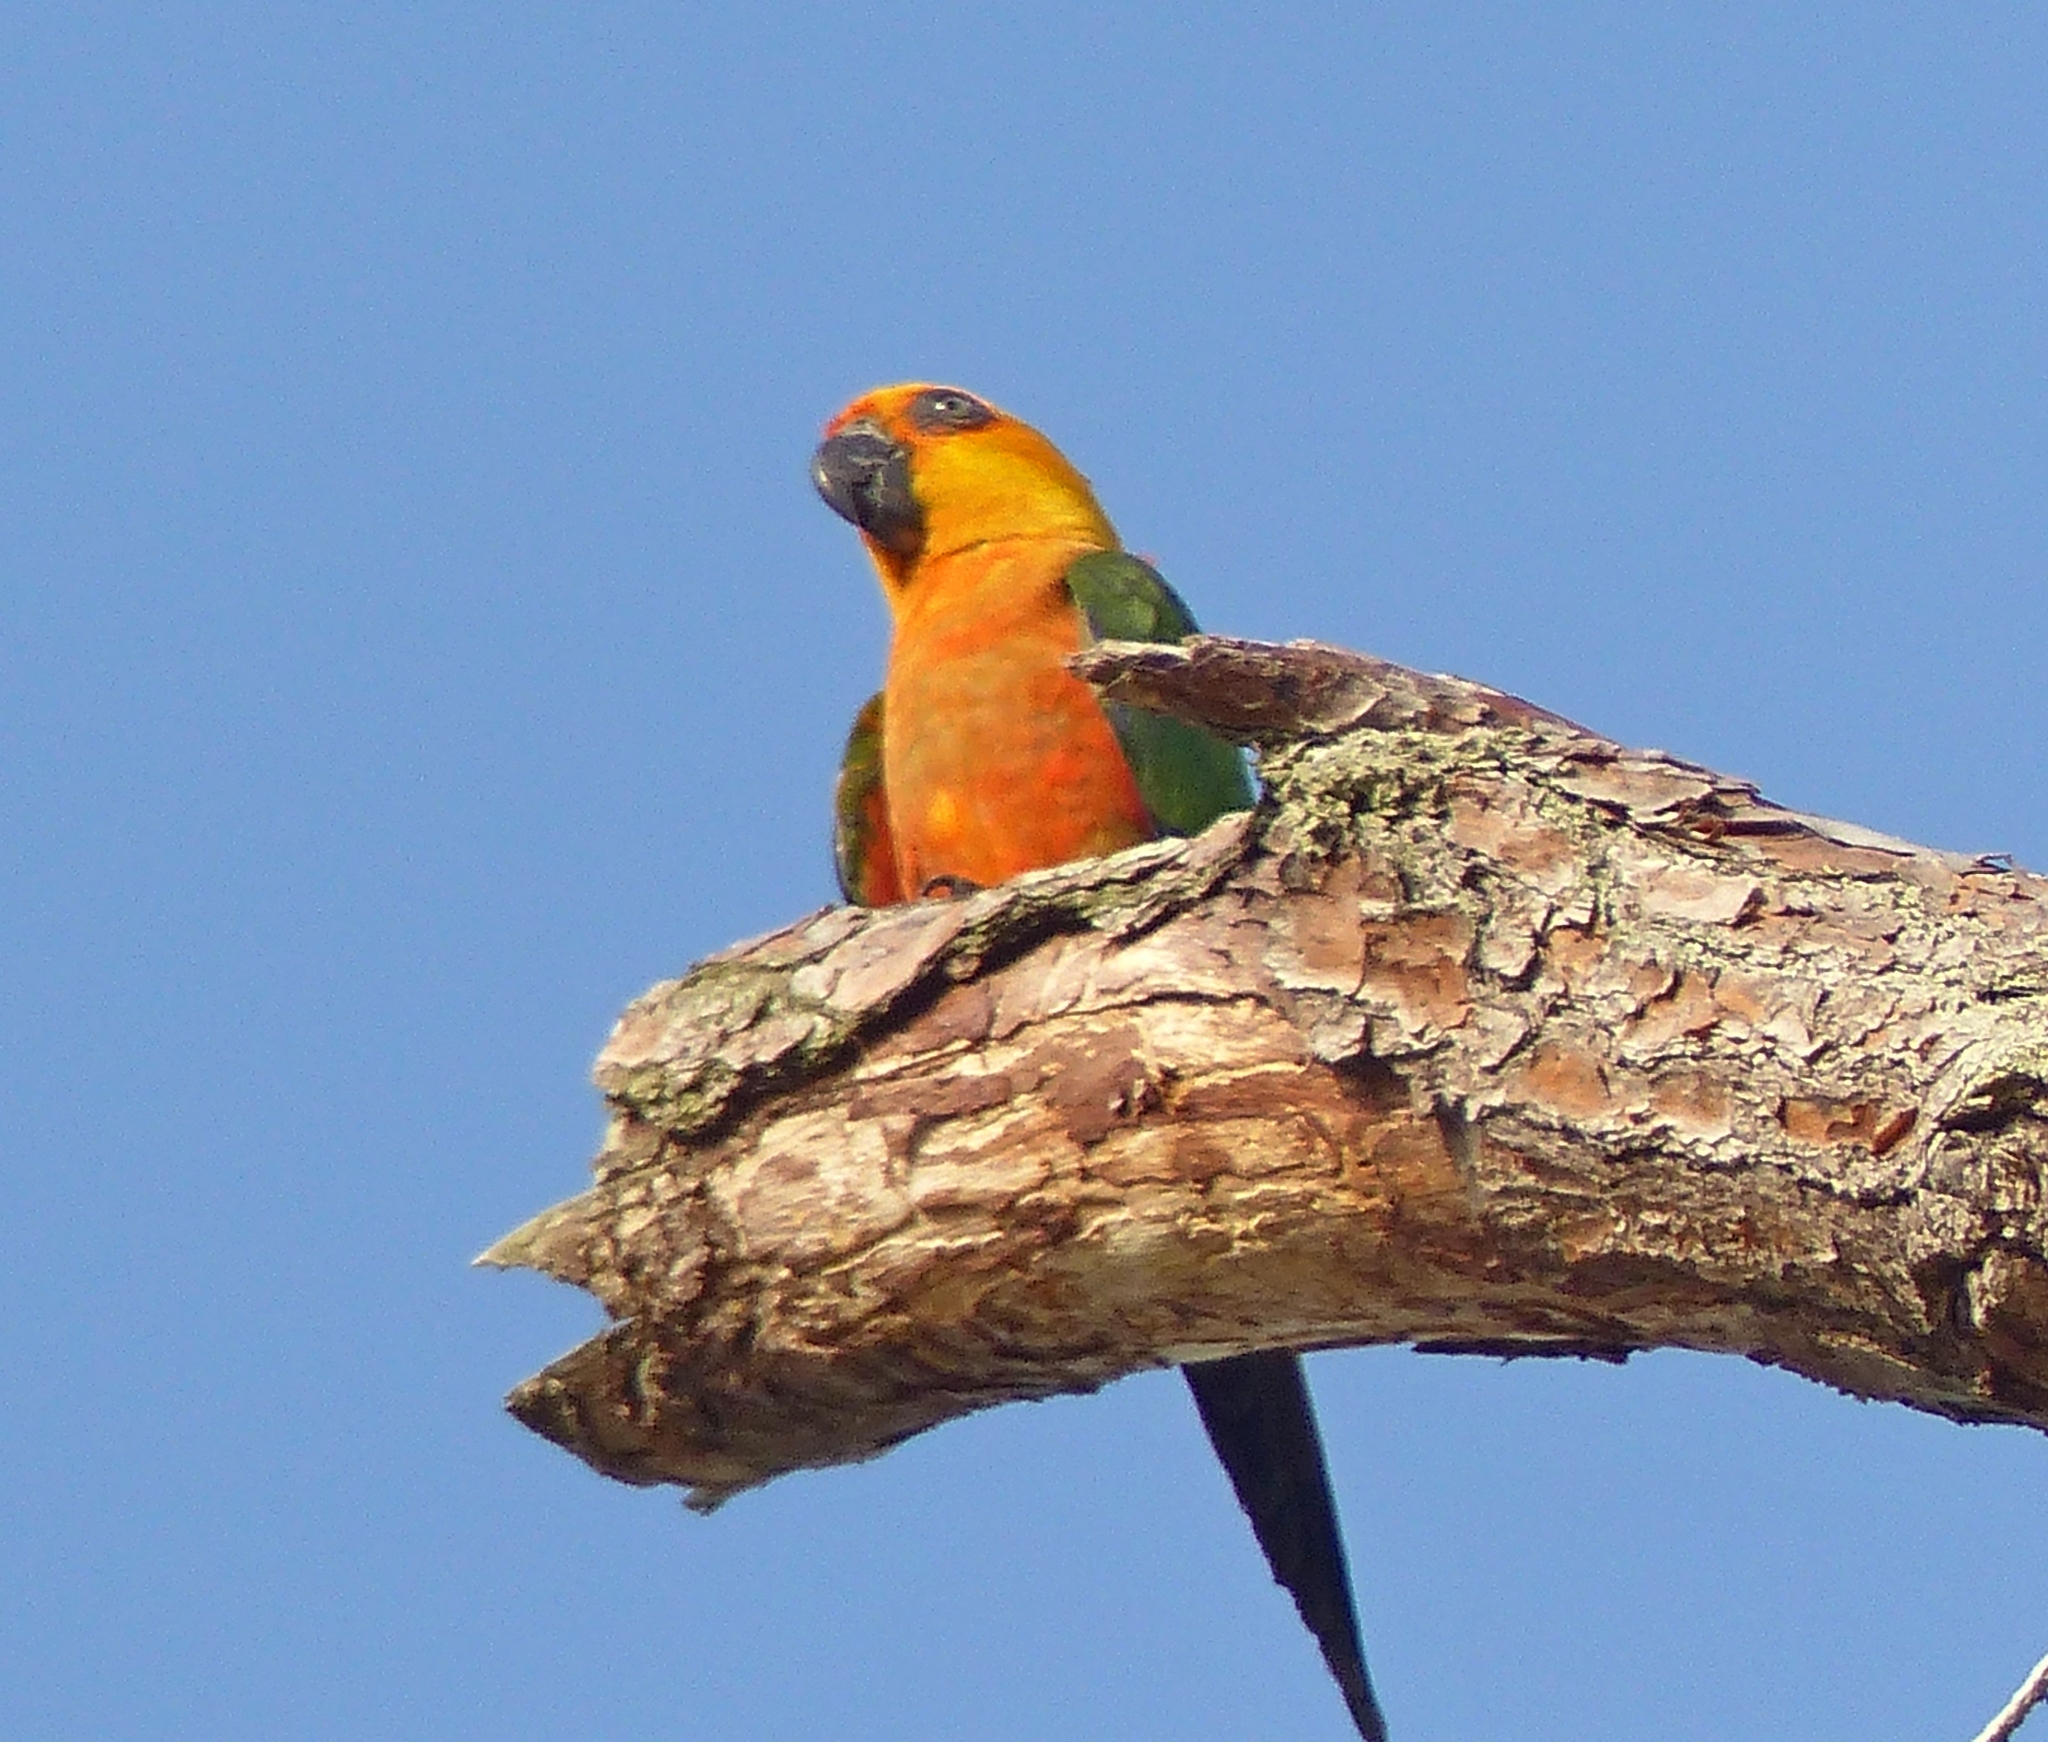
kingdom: Animalia
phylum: Chordata
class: Aves
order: Psittaciformes
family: Psittacidae
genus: Aratinga
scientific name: Aratinga jandaya
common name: Jandaya parakeet
